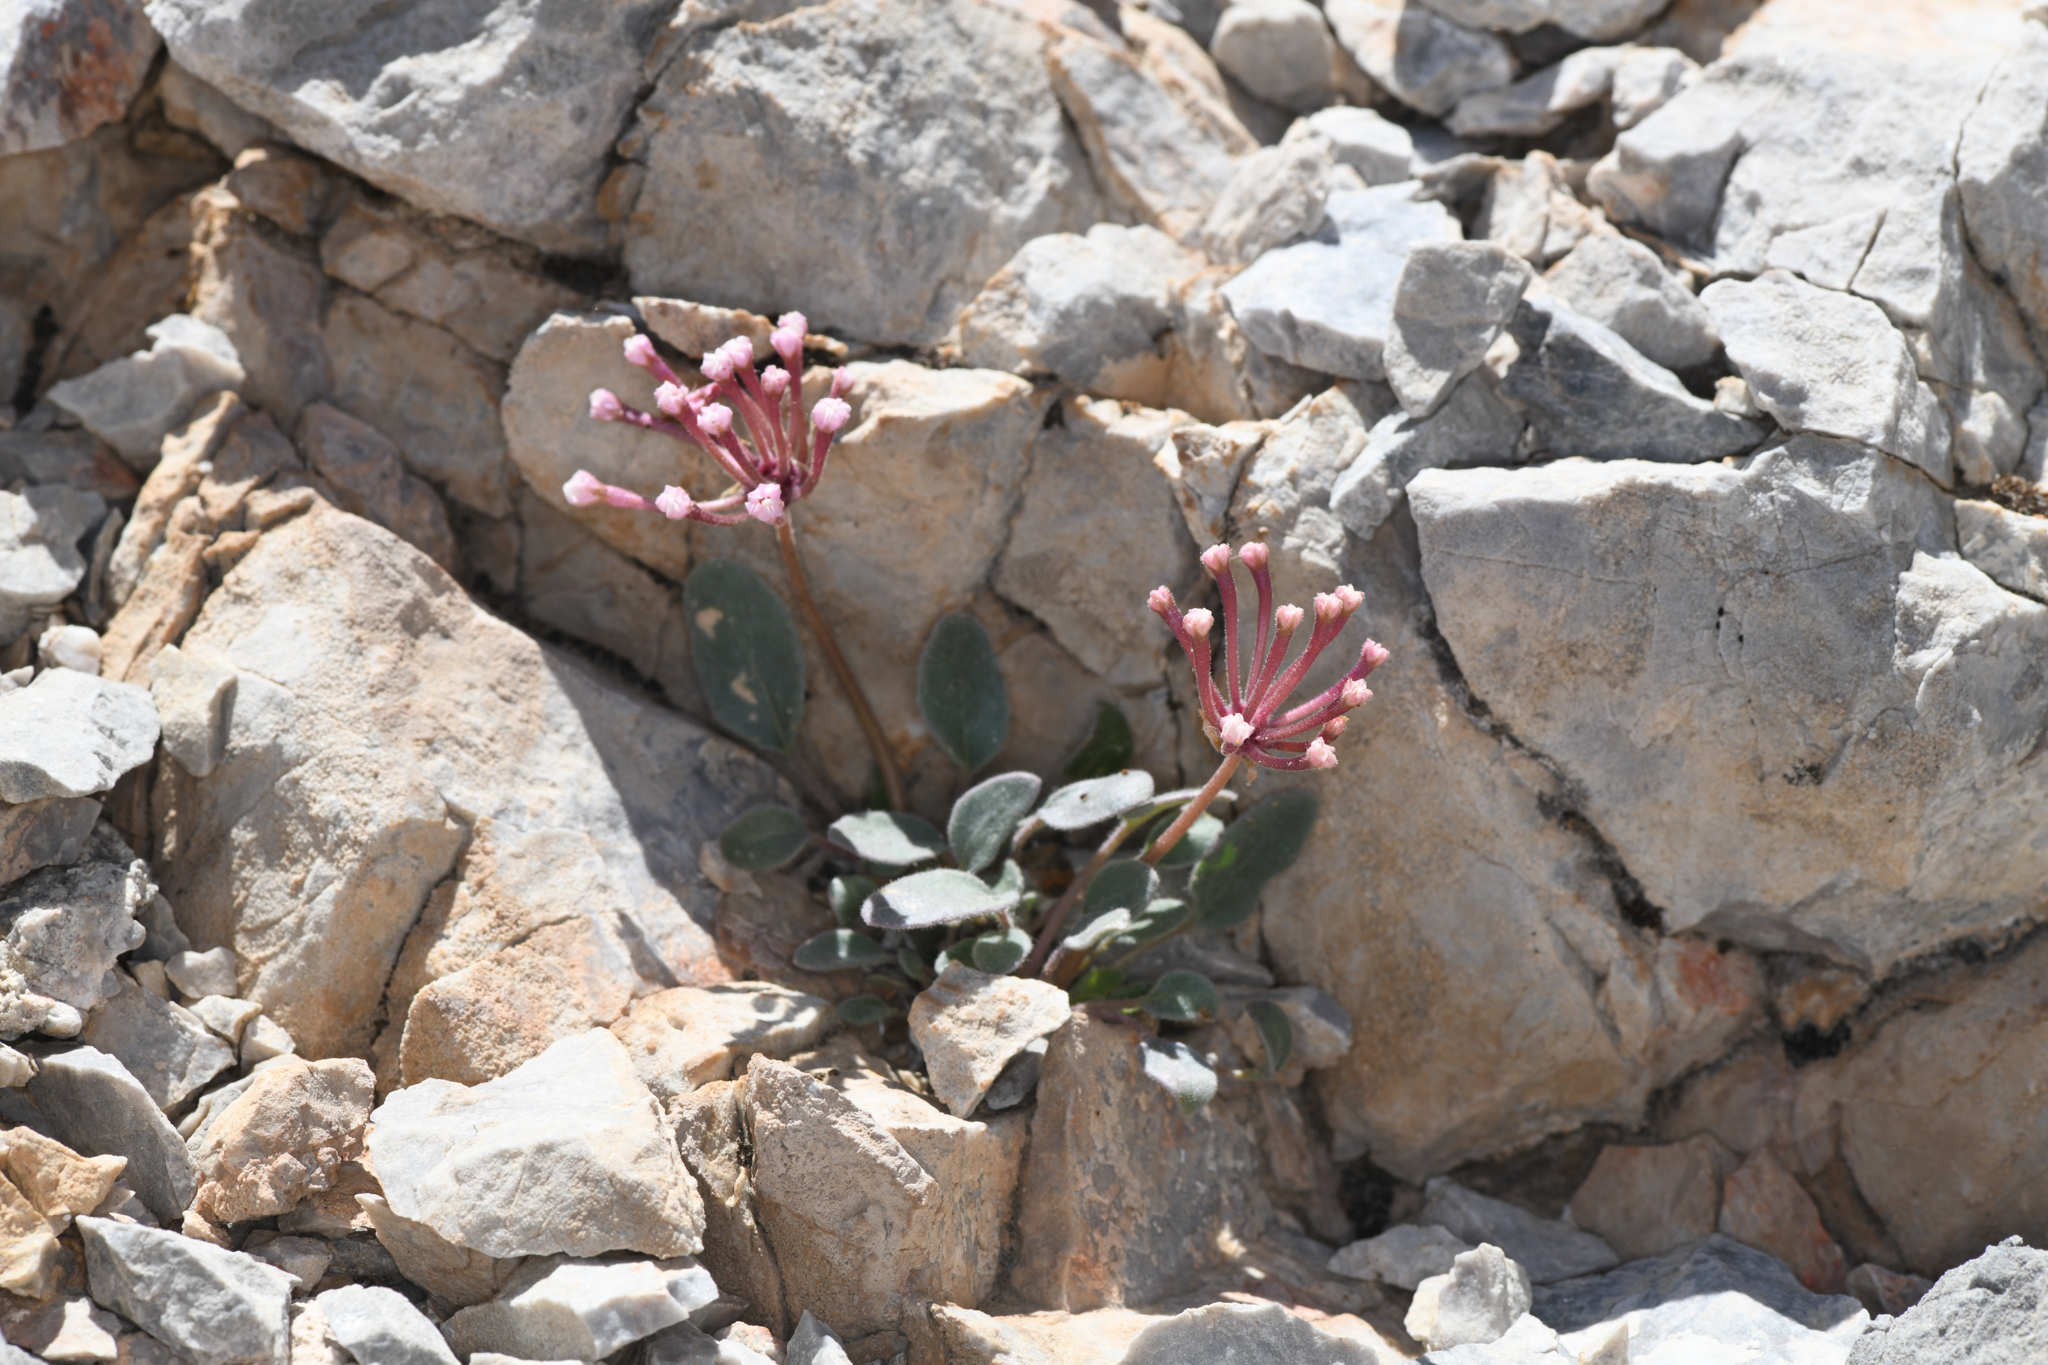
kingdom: Plantae
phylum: Tracheophyta
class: Magnoliopsida
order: Caryophyllales
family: Nyctaginaceae
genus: Abronia
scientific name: Abronia nana
